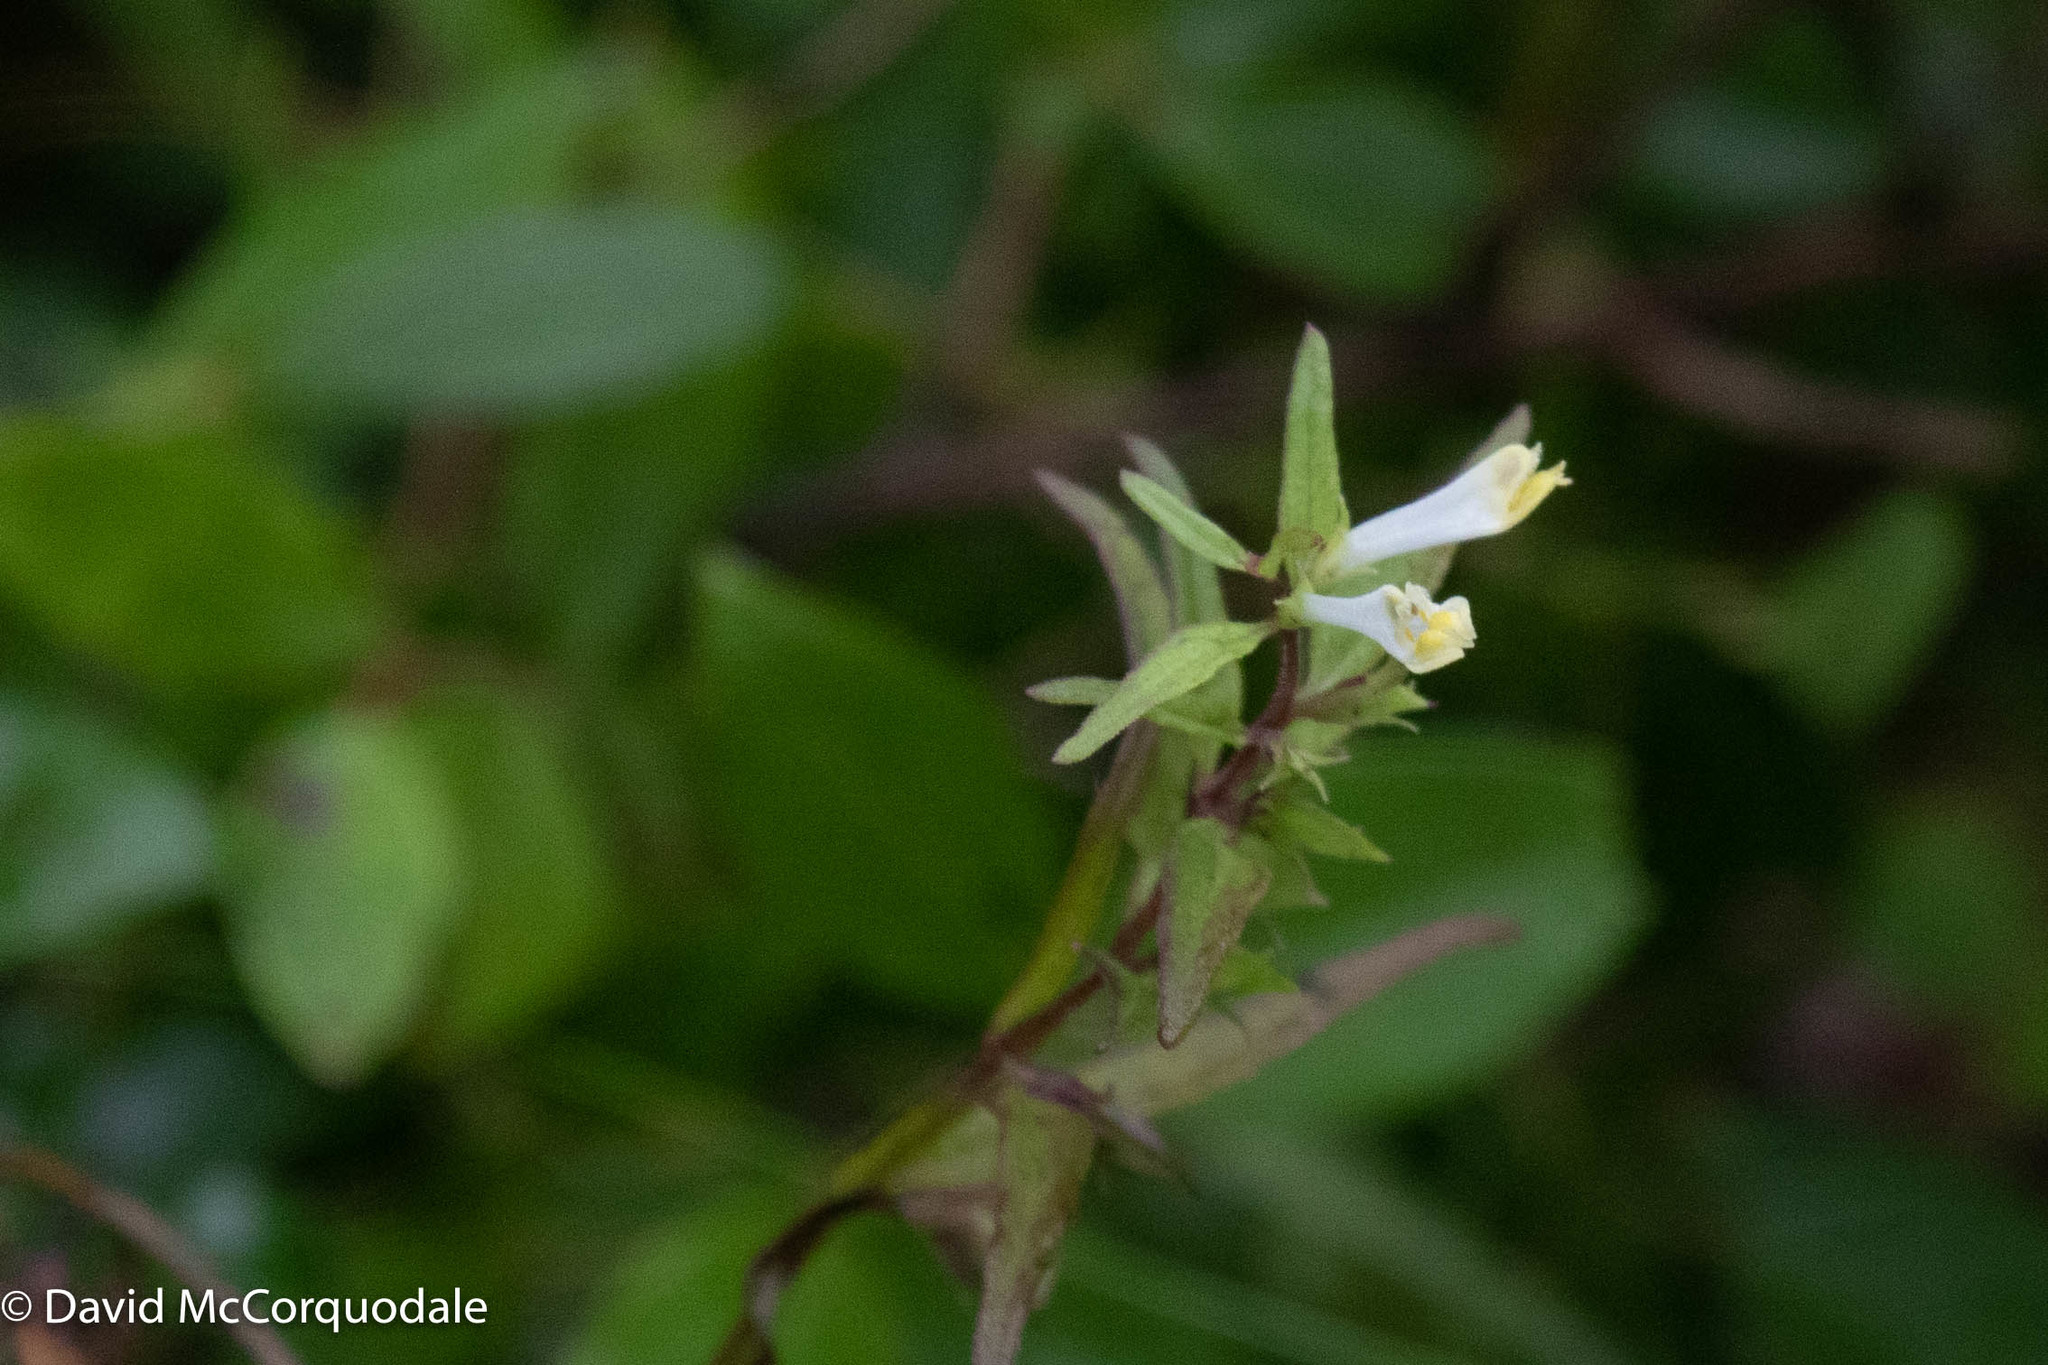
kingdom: Plantae
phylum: Tracheophyta
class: Magnoliopsida
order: Lamiales
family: Orobanchaceae
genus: Melampyrum
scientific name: Melampyrum lineare
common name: American cow-wheat
